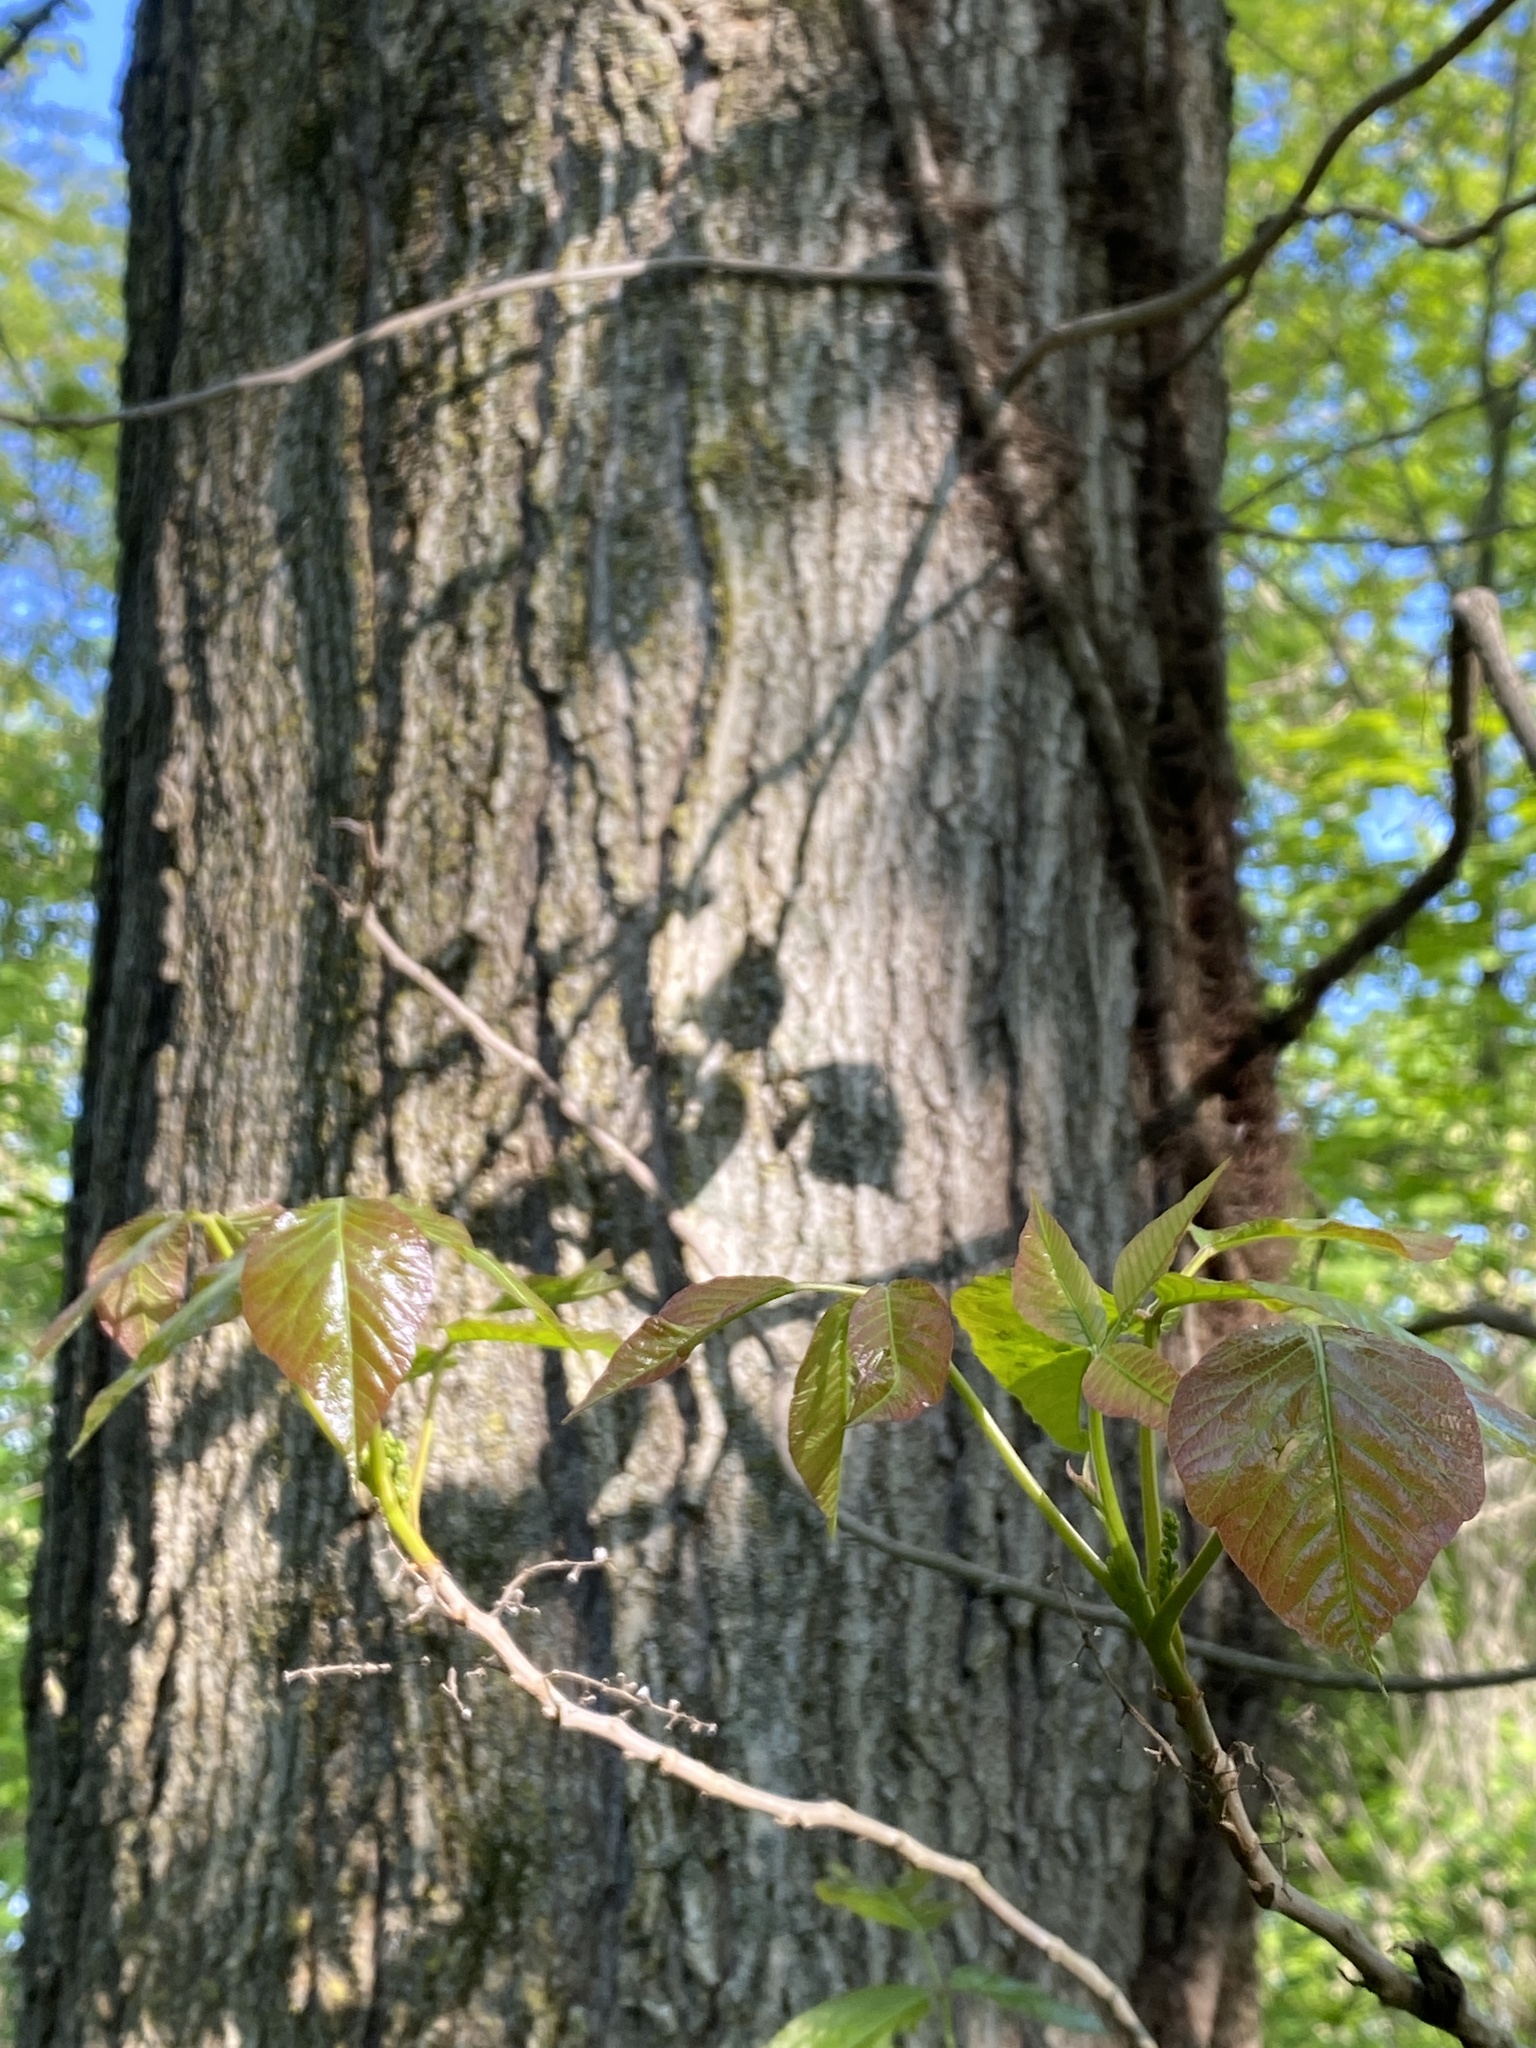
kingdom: Plantae
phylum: Tracheophyta
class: Magnoliopsida
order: Sapindales
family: Anacardiaceae
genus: Toxicodendron
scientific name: Toxicodendron radicans
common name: Poison ivy
